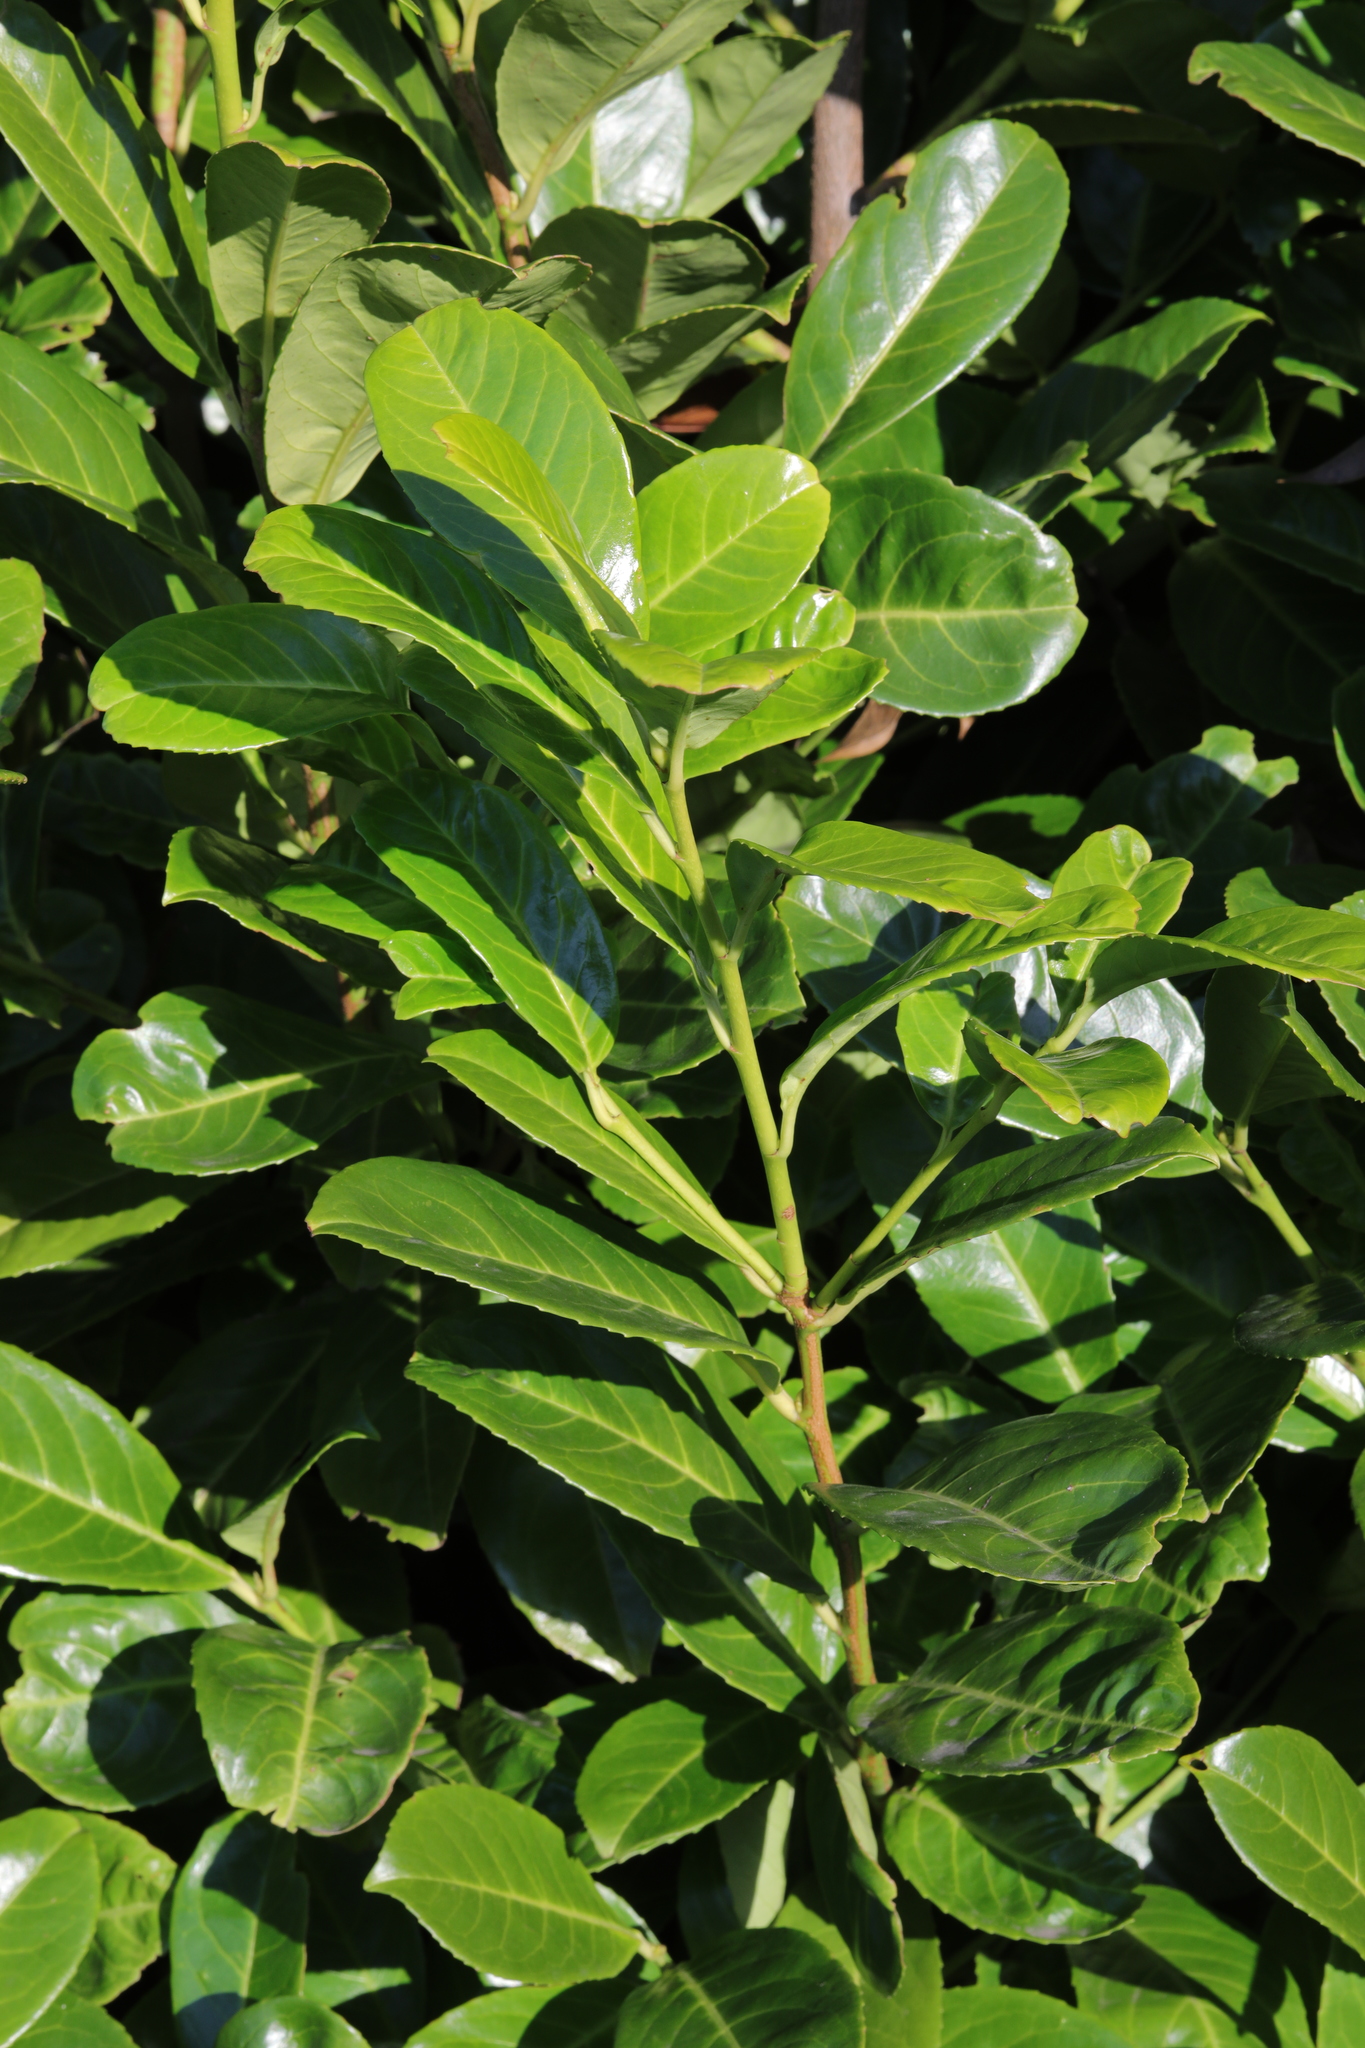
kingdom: Plantae
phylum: Tracheophyta
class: Magnoliopsida
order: Rosales
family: Rosaceae
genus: Prunus
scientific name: Prunus laurocerasus
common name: Cherry laurel
